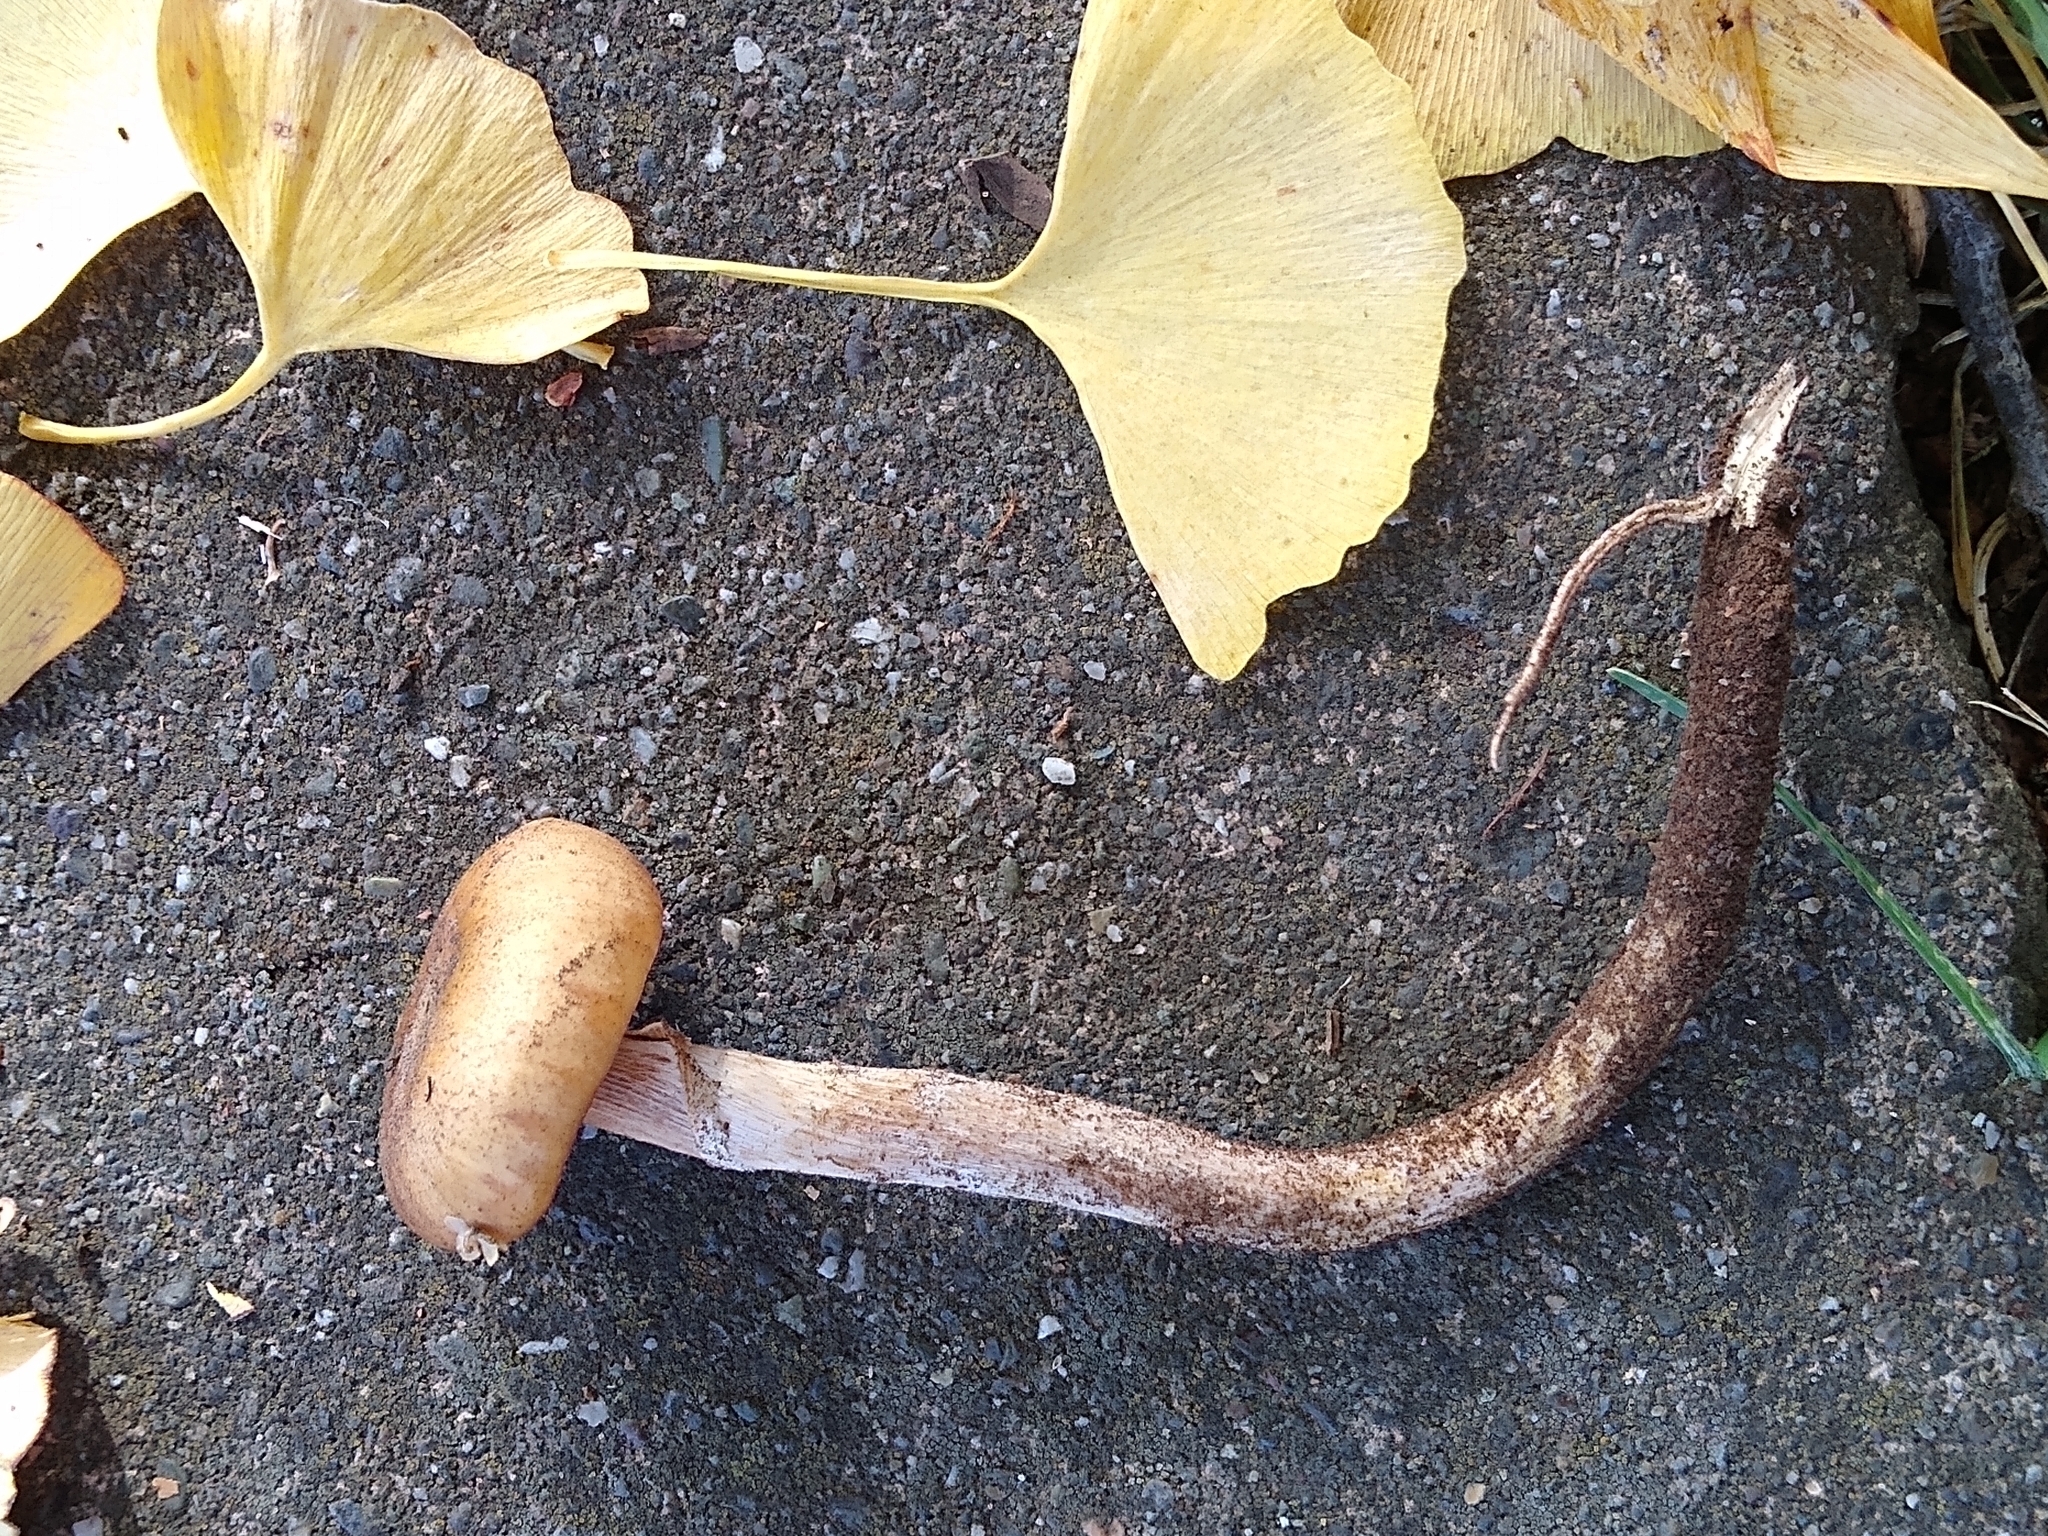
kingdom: Fungi
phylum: Basidiomycota
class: Agaricomycetes
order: Agaricales
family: Physalacriaceae
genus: Armillaria
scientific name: Armillaria mellea
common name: Honey fungus
